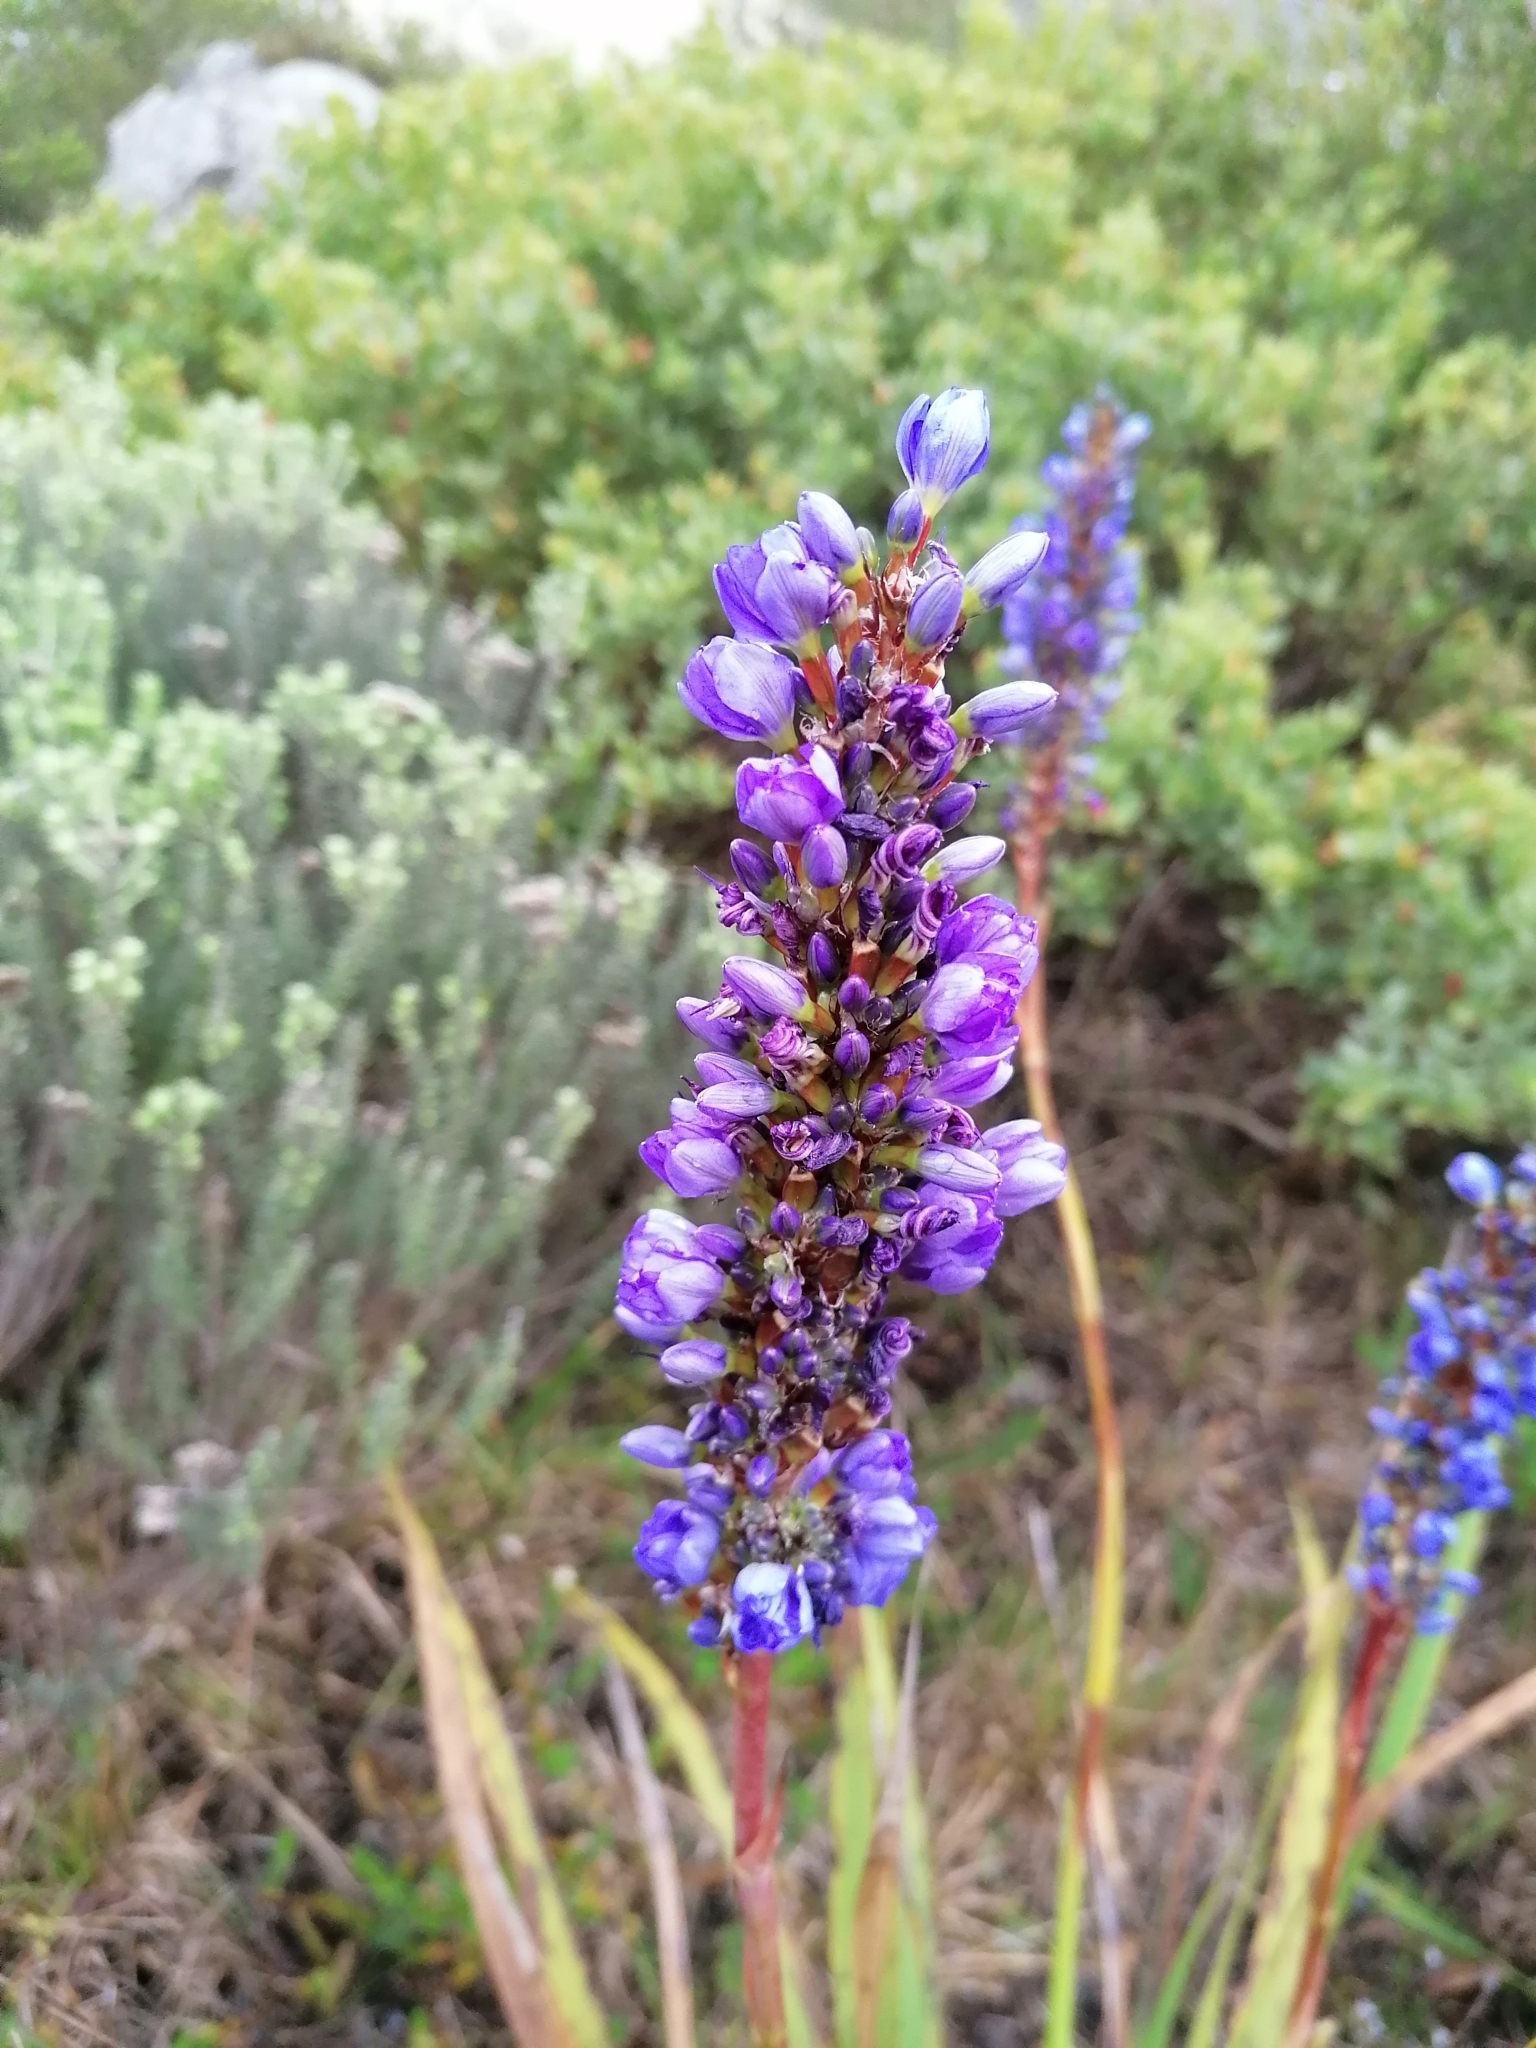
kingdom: Plantae
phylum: Tracheophyta
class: Liliopsida
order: Asparagales
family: Iridaceae
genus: Aristea
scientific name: Aristea capitata
